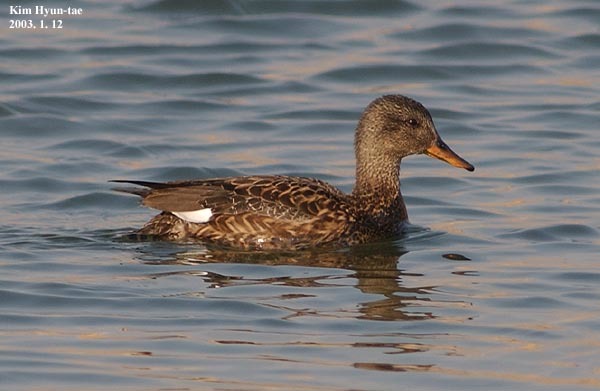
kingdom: Animalia
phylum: Chordata
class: Aves
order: Anseriformes
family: Anatidae
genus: Mareca
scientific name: Mareca strepera
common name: Gadwall
